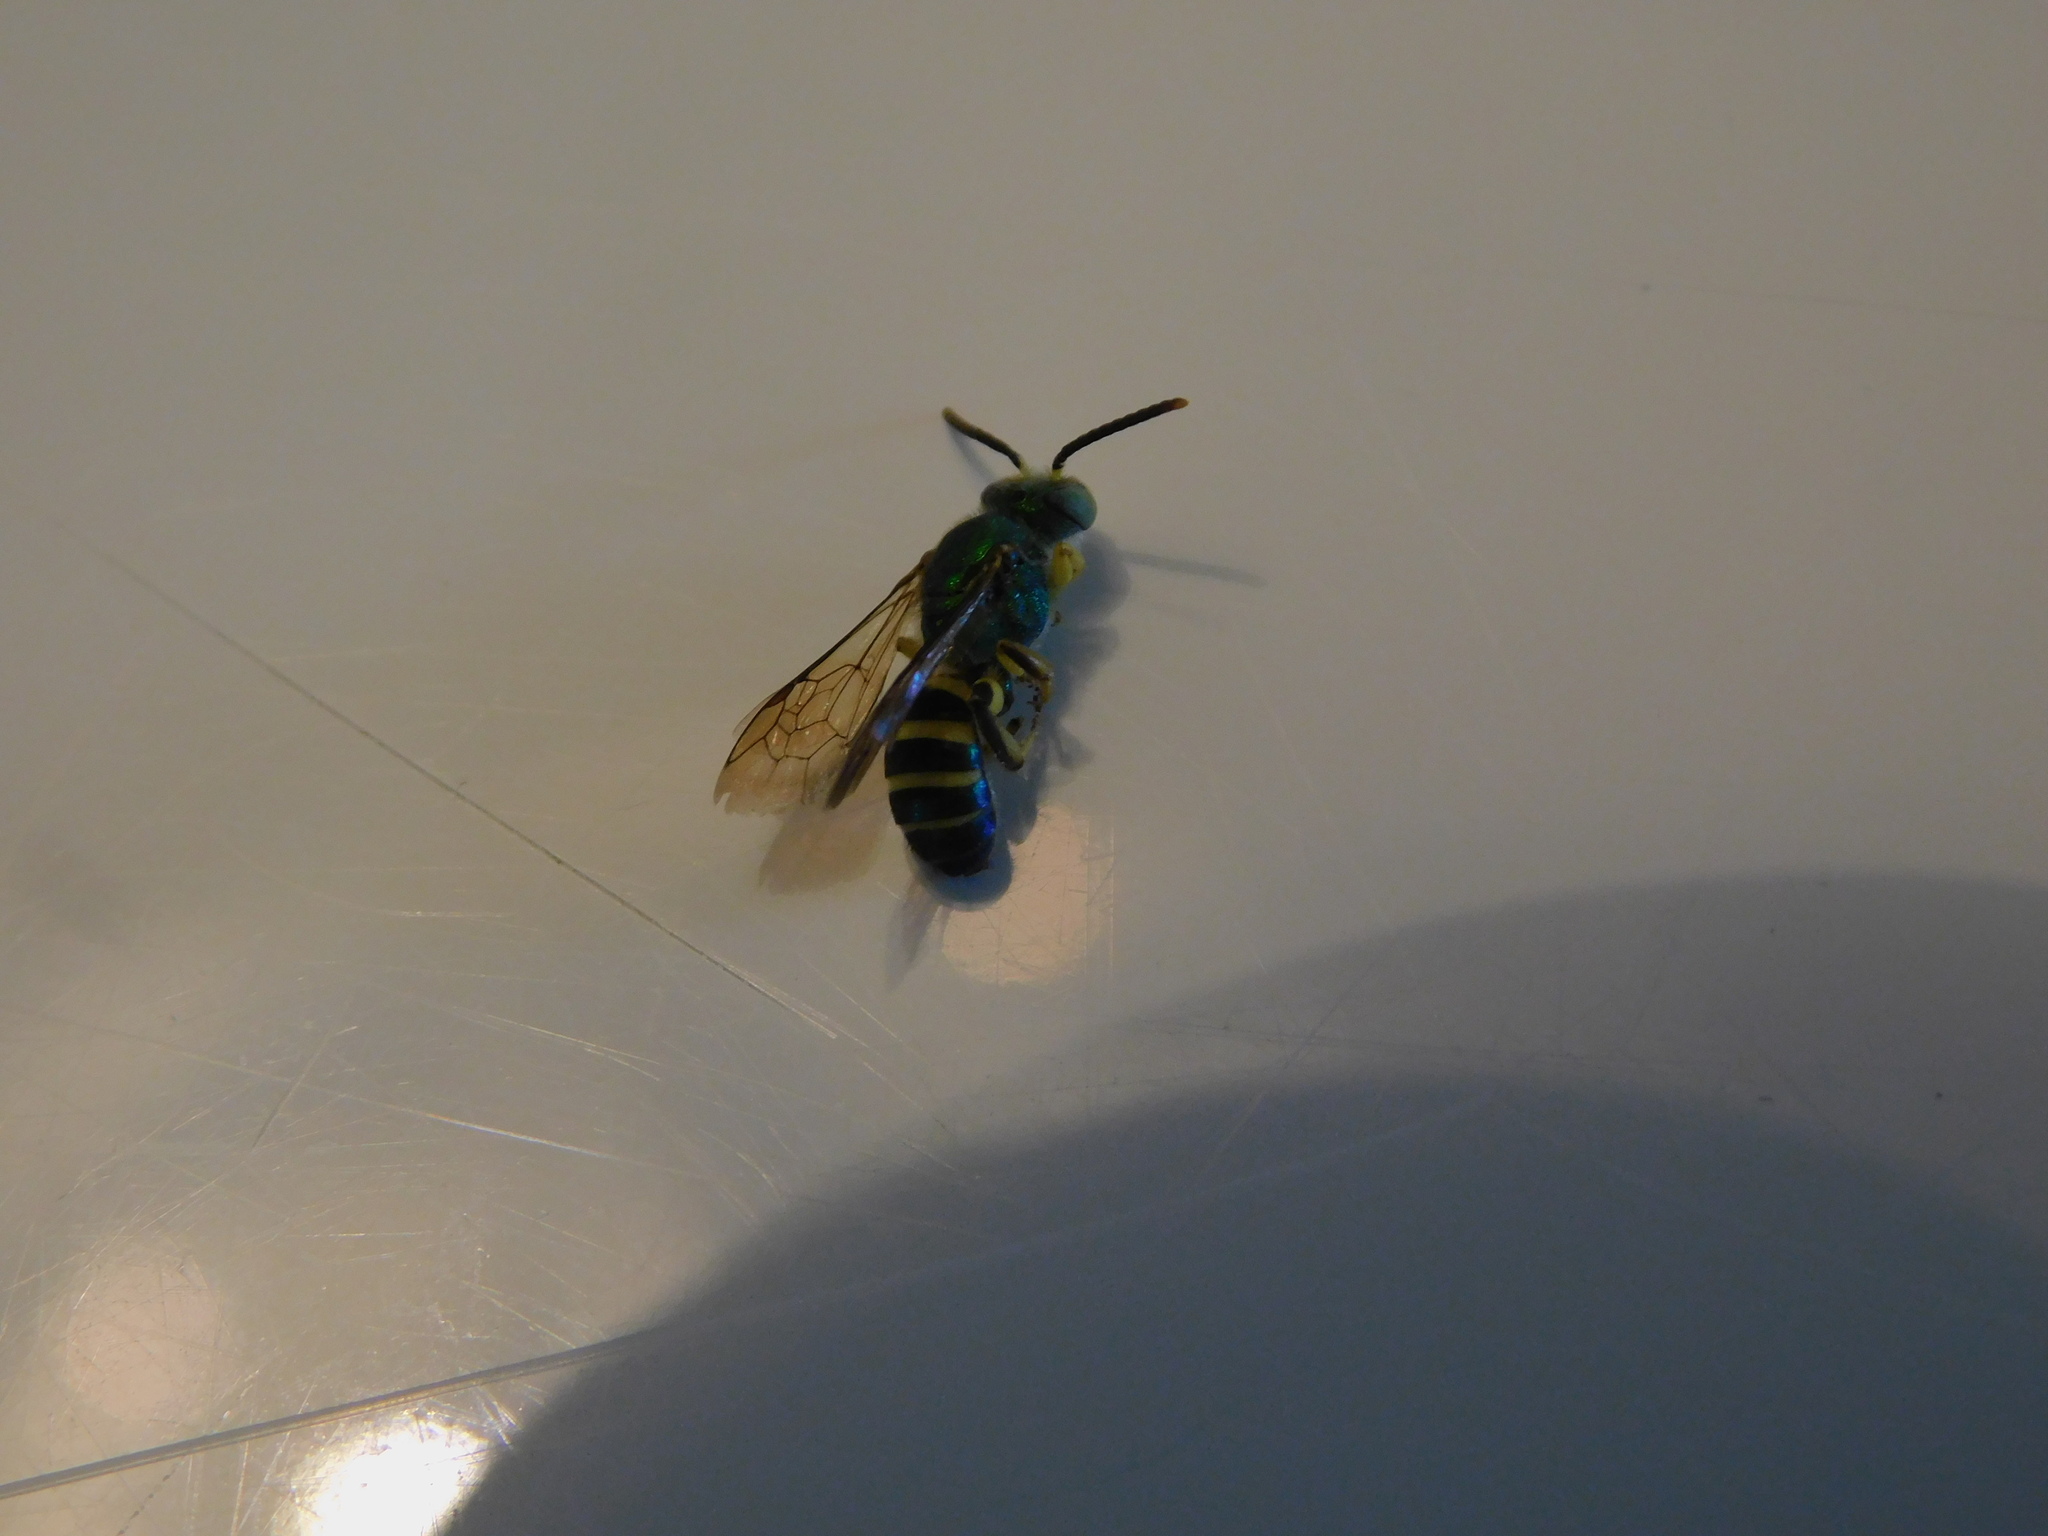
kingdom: Animalia
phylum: Arthropoda
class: Insecta
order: Hymenoptera
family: Halictidae
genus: Agapostemon
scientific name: Agapostemon poeyi
